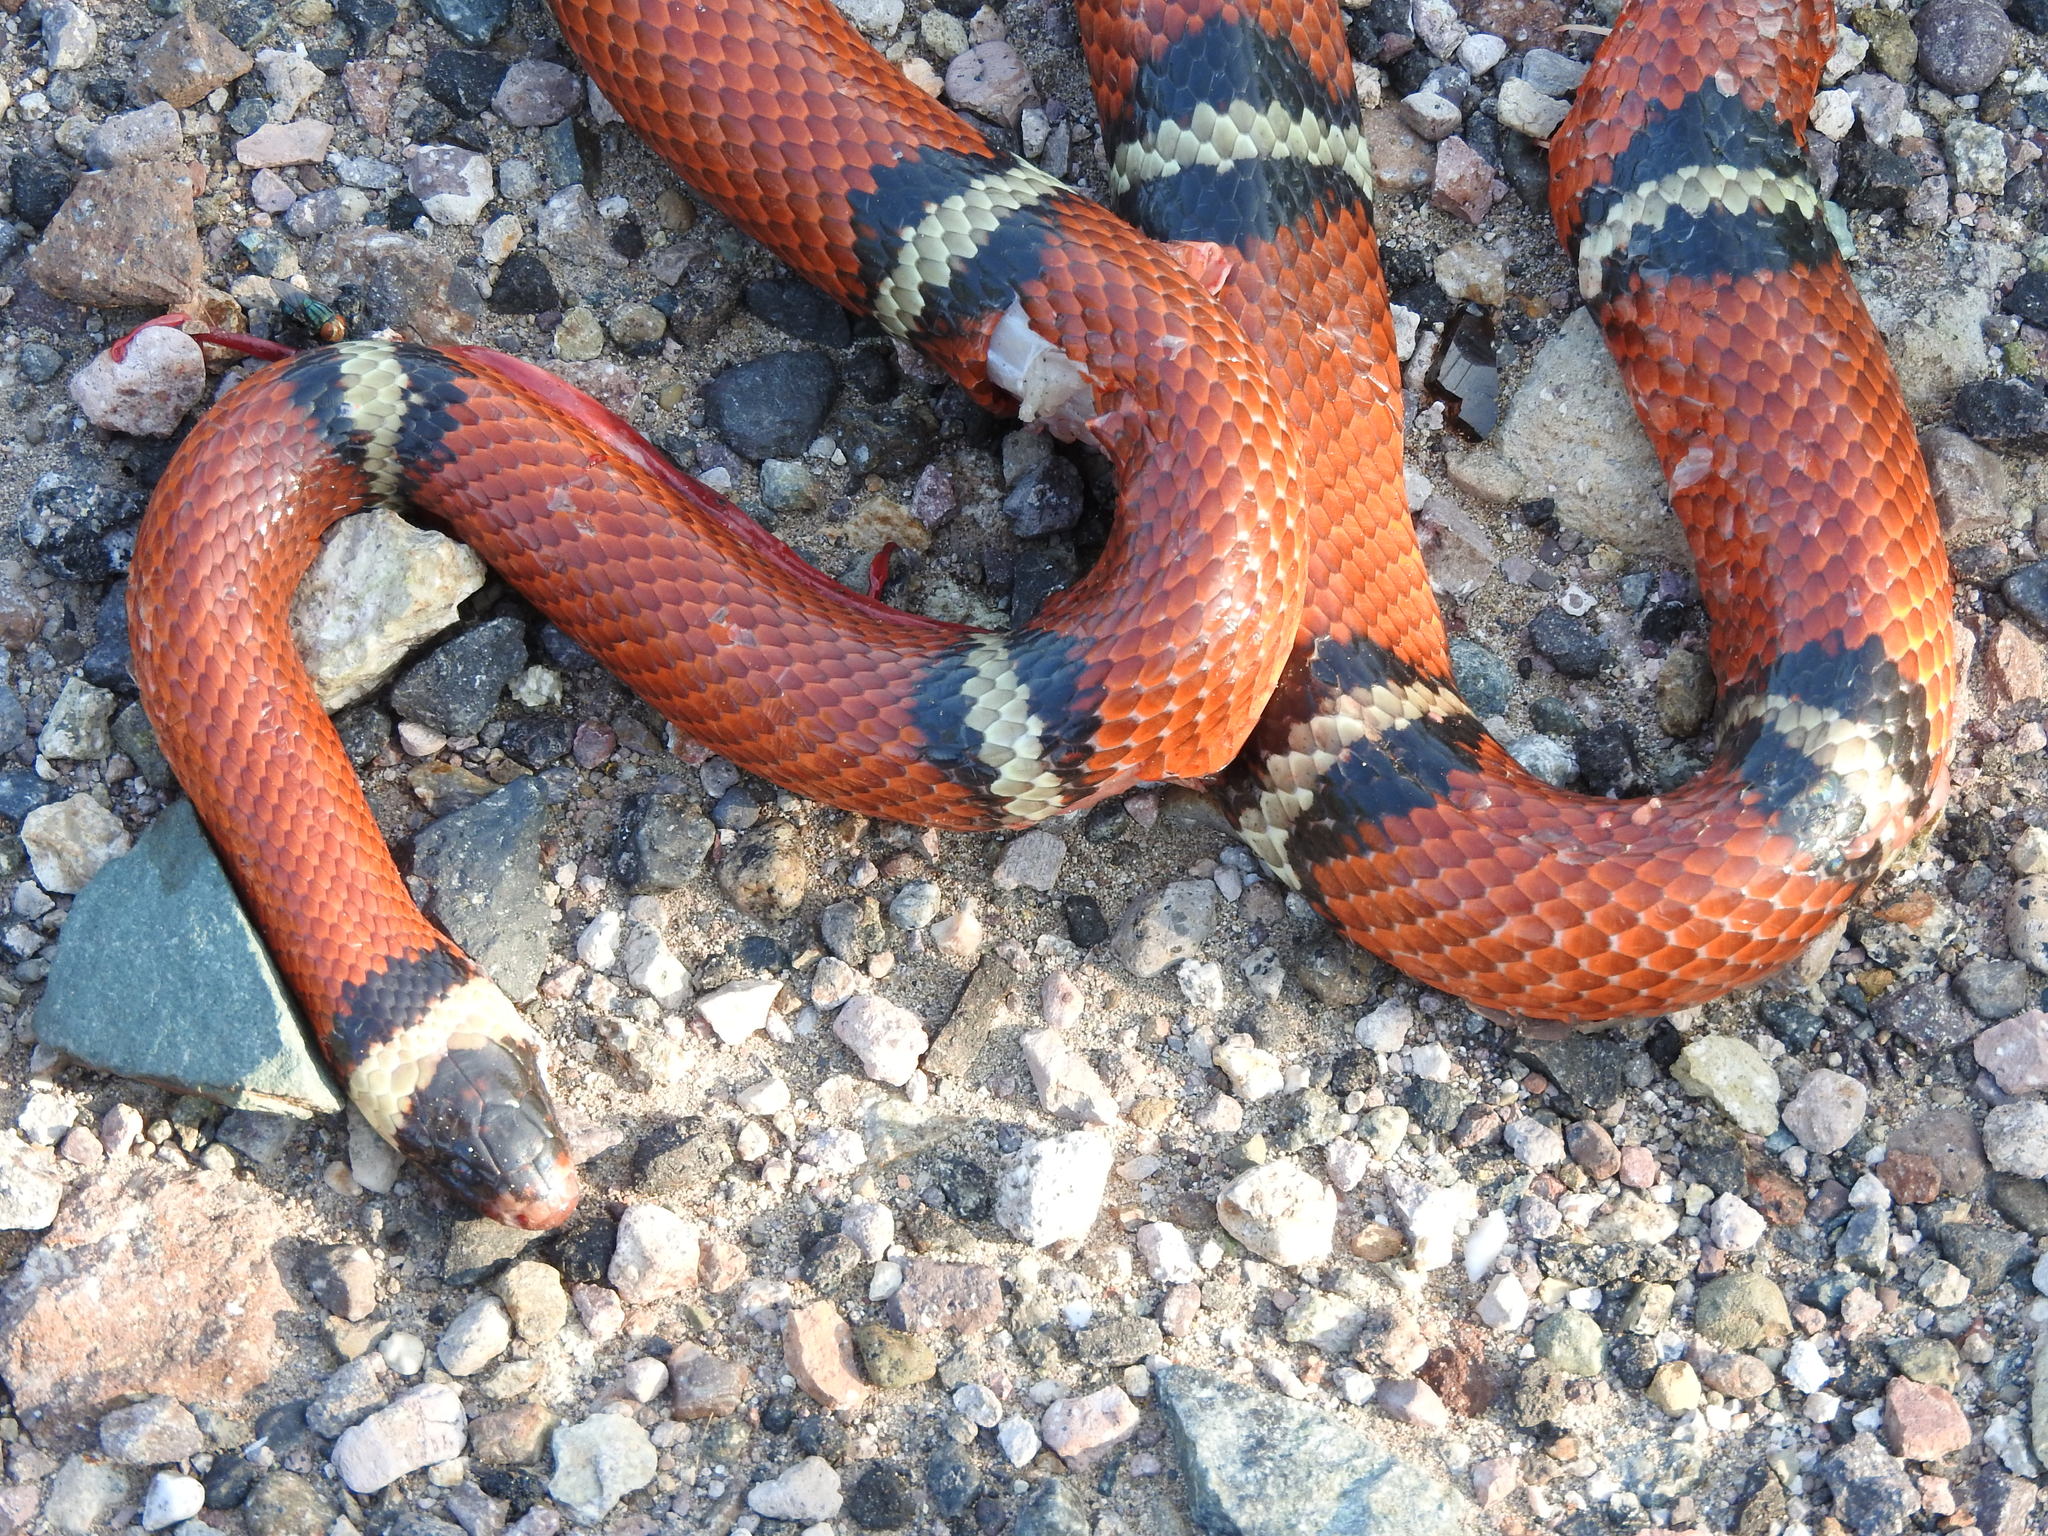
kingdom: Animalia
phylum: Chordata
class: Squamata
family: Colubridae
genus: Lampropeltis
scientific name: Lampropeltis polyzona
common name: Atlantic central american milksnake
